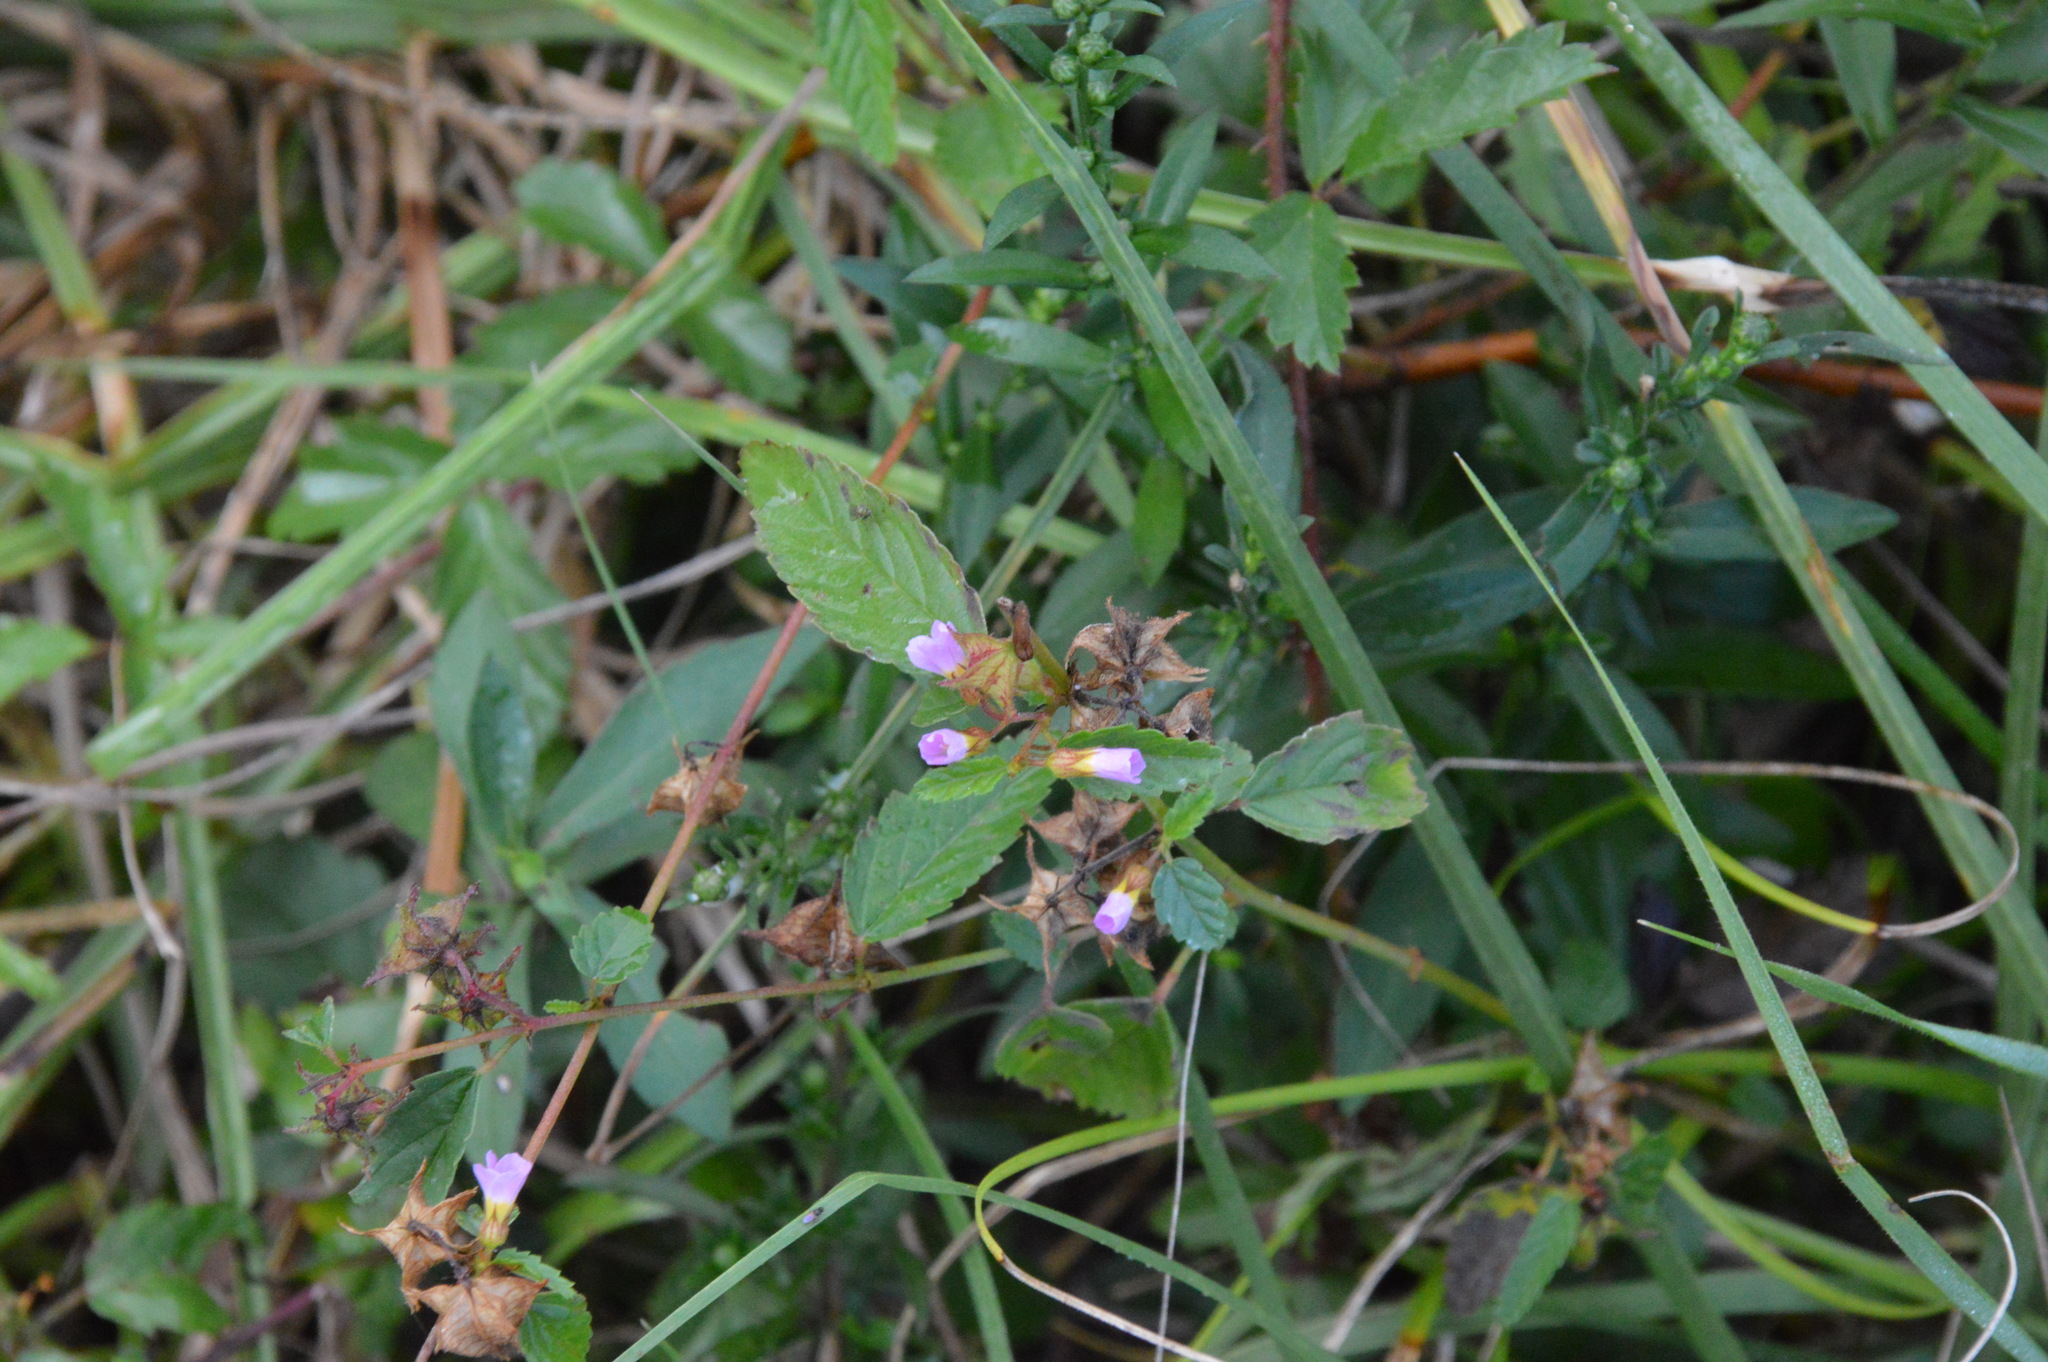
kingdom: Plantae
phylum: Tracheophyta
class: Magnoliopsida
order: Malvales
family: Malvaceae
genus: Melochia
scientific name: Melochia pyramidata
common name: Pyramidflower
